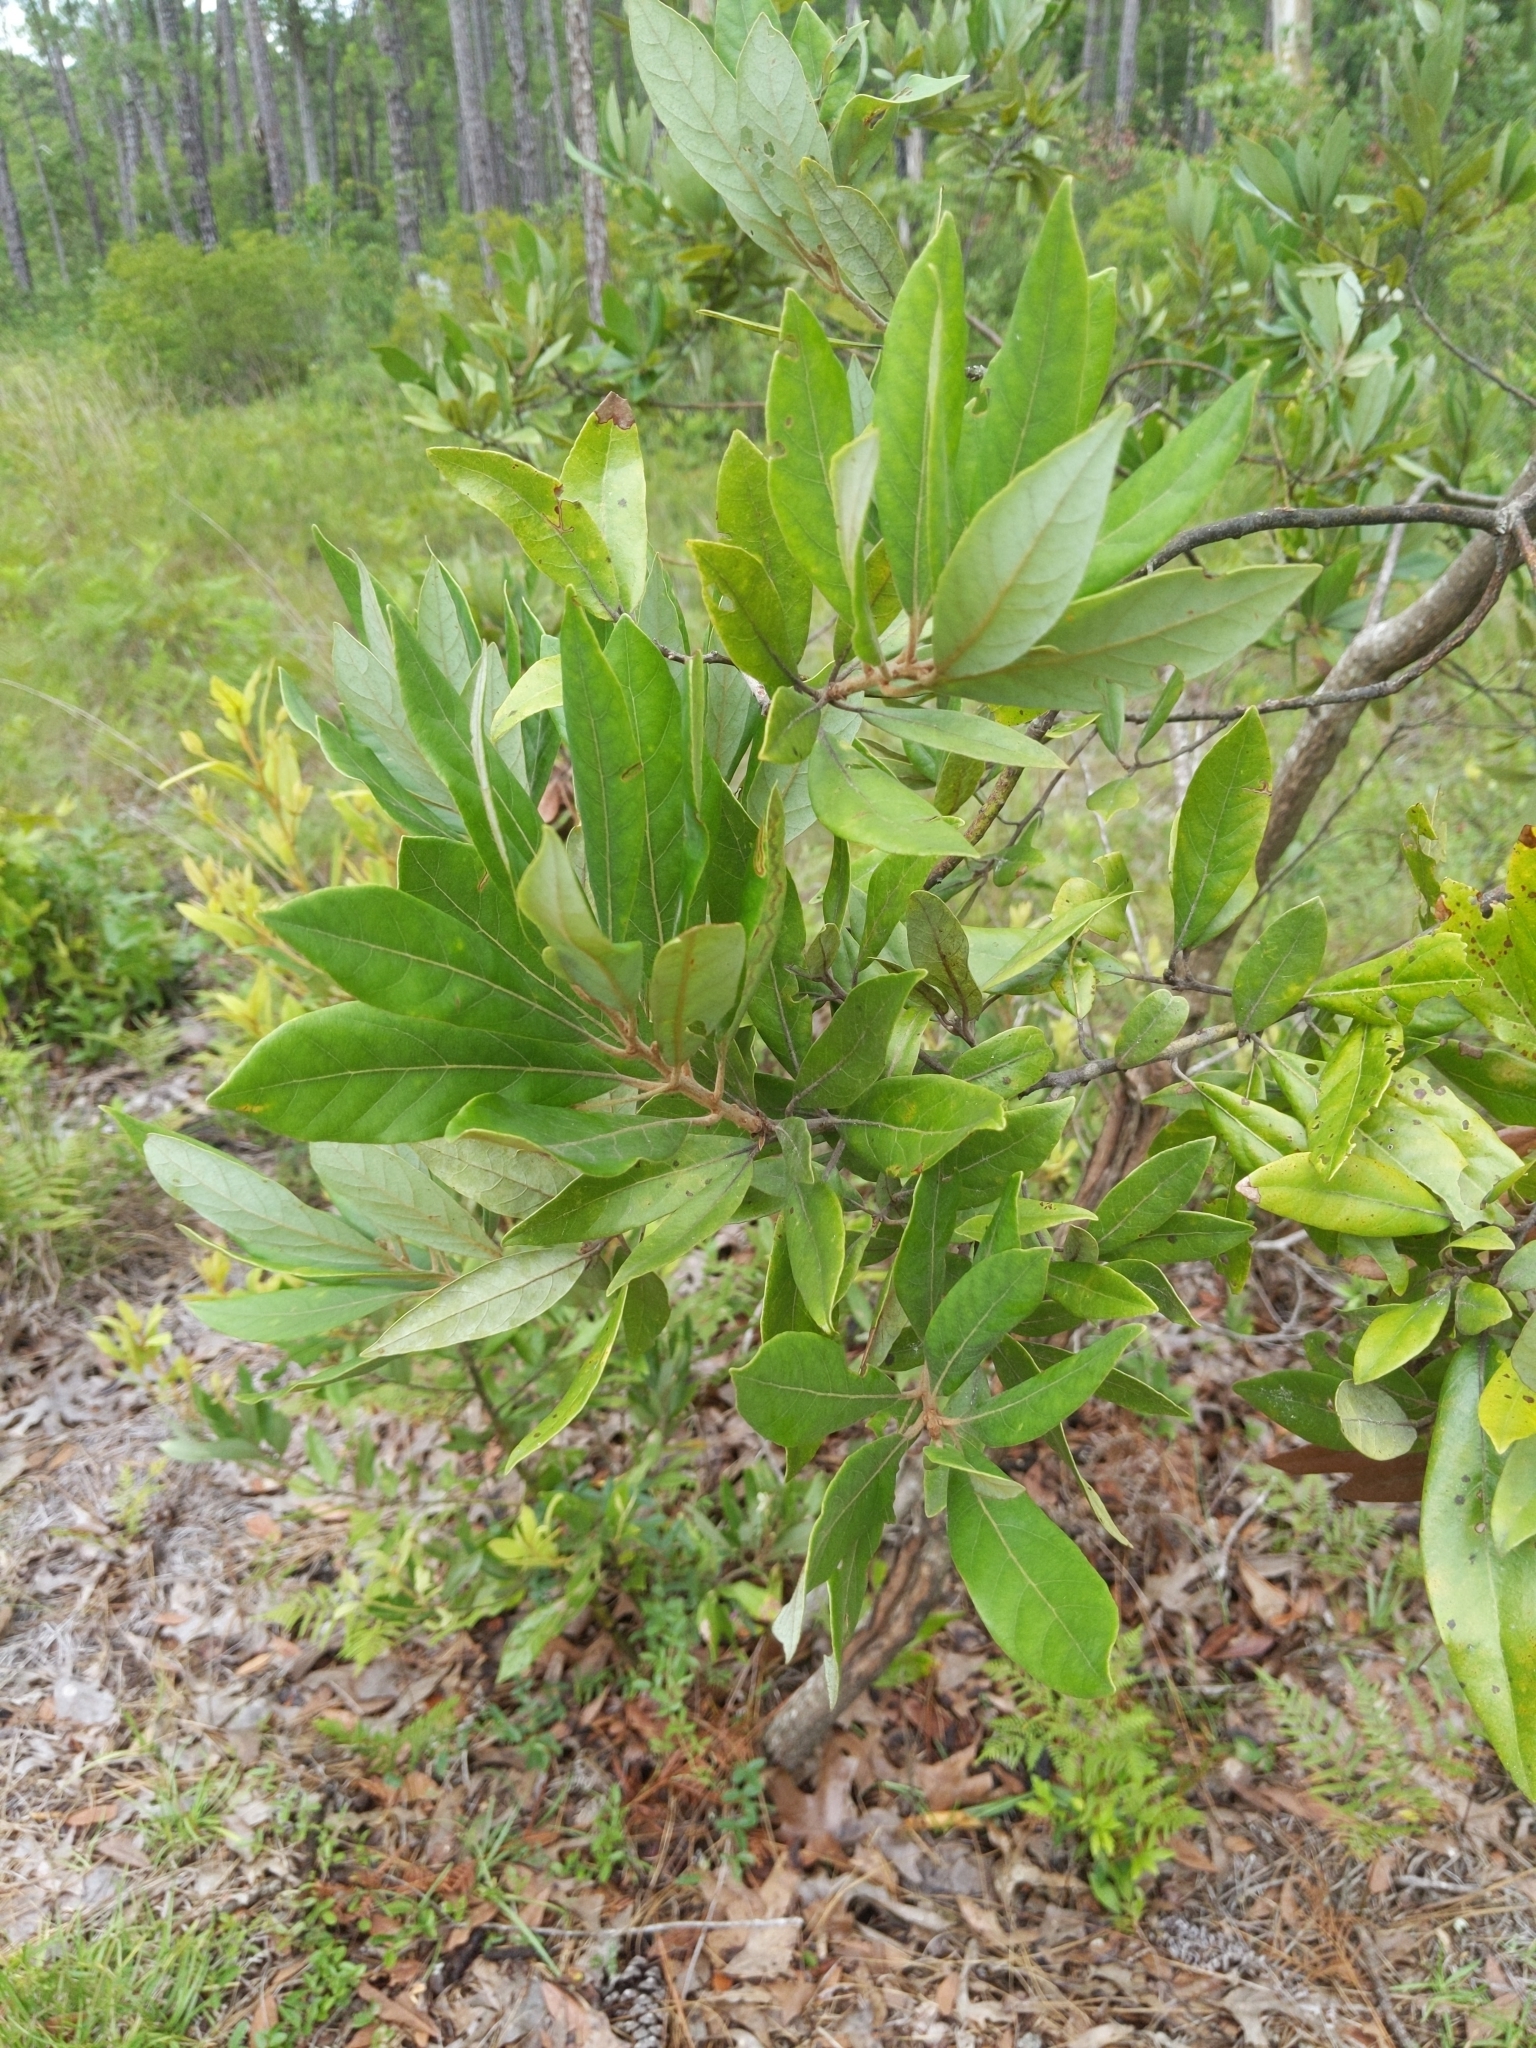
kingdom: Plantae
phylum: Tracheophyta
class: Magnoliopsida
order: Laurales
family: Lauraceae
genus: Persea
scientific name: Persea palustris
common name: Swampbay
